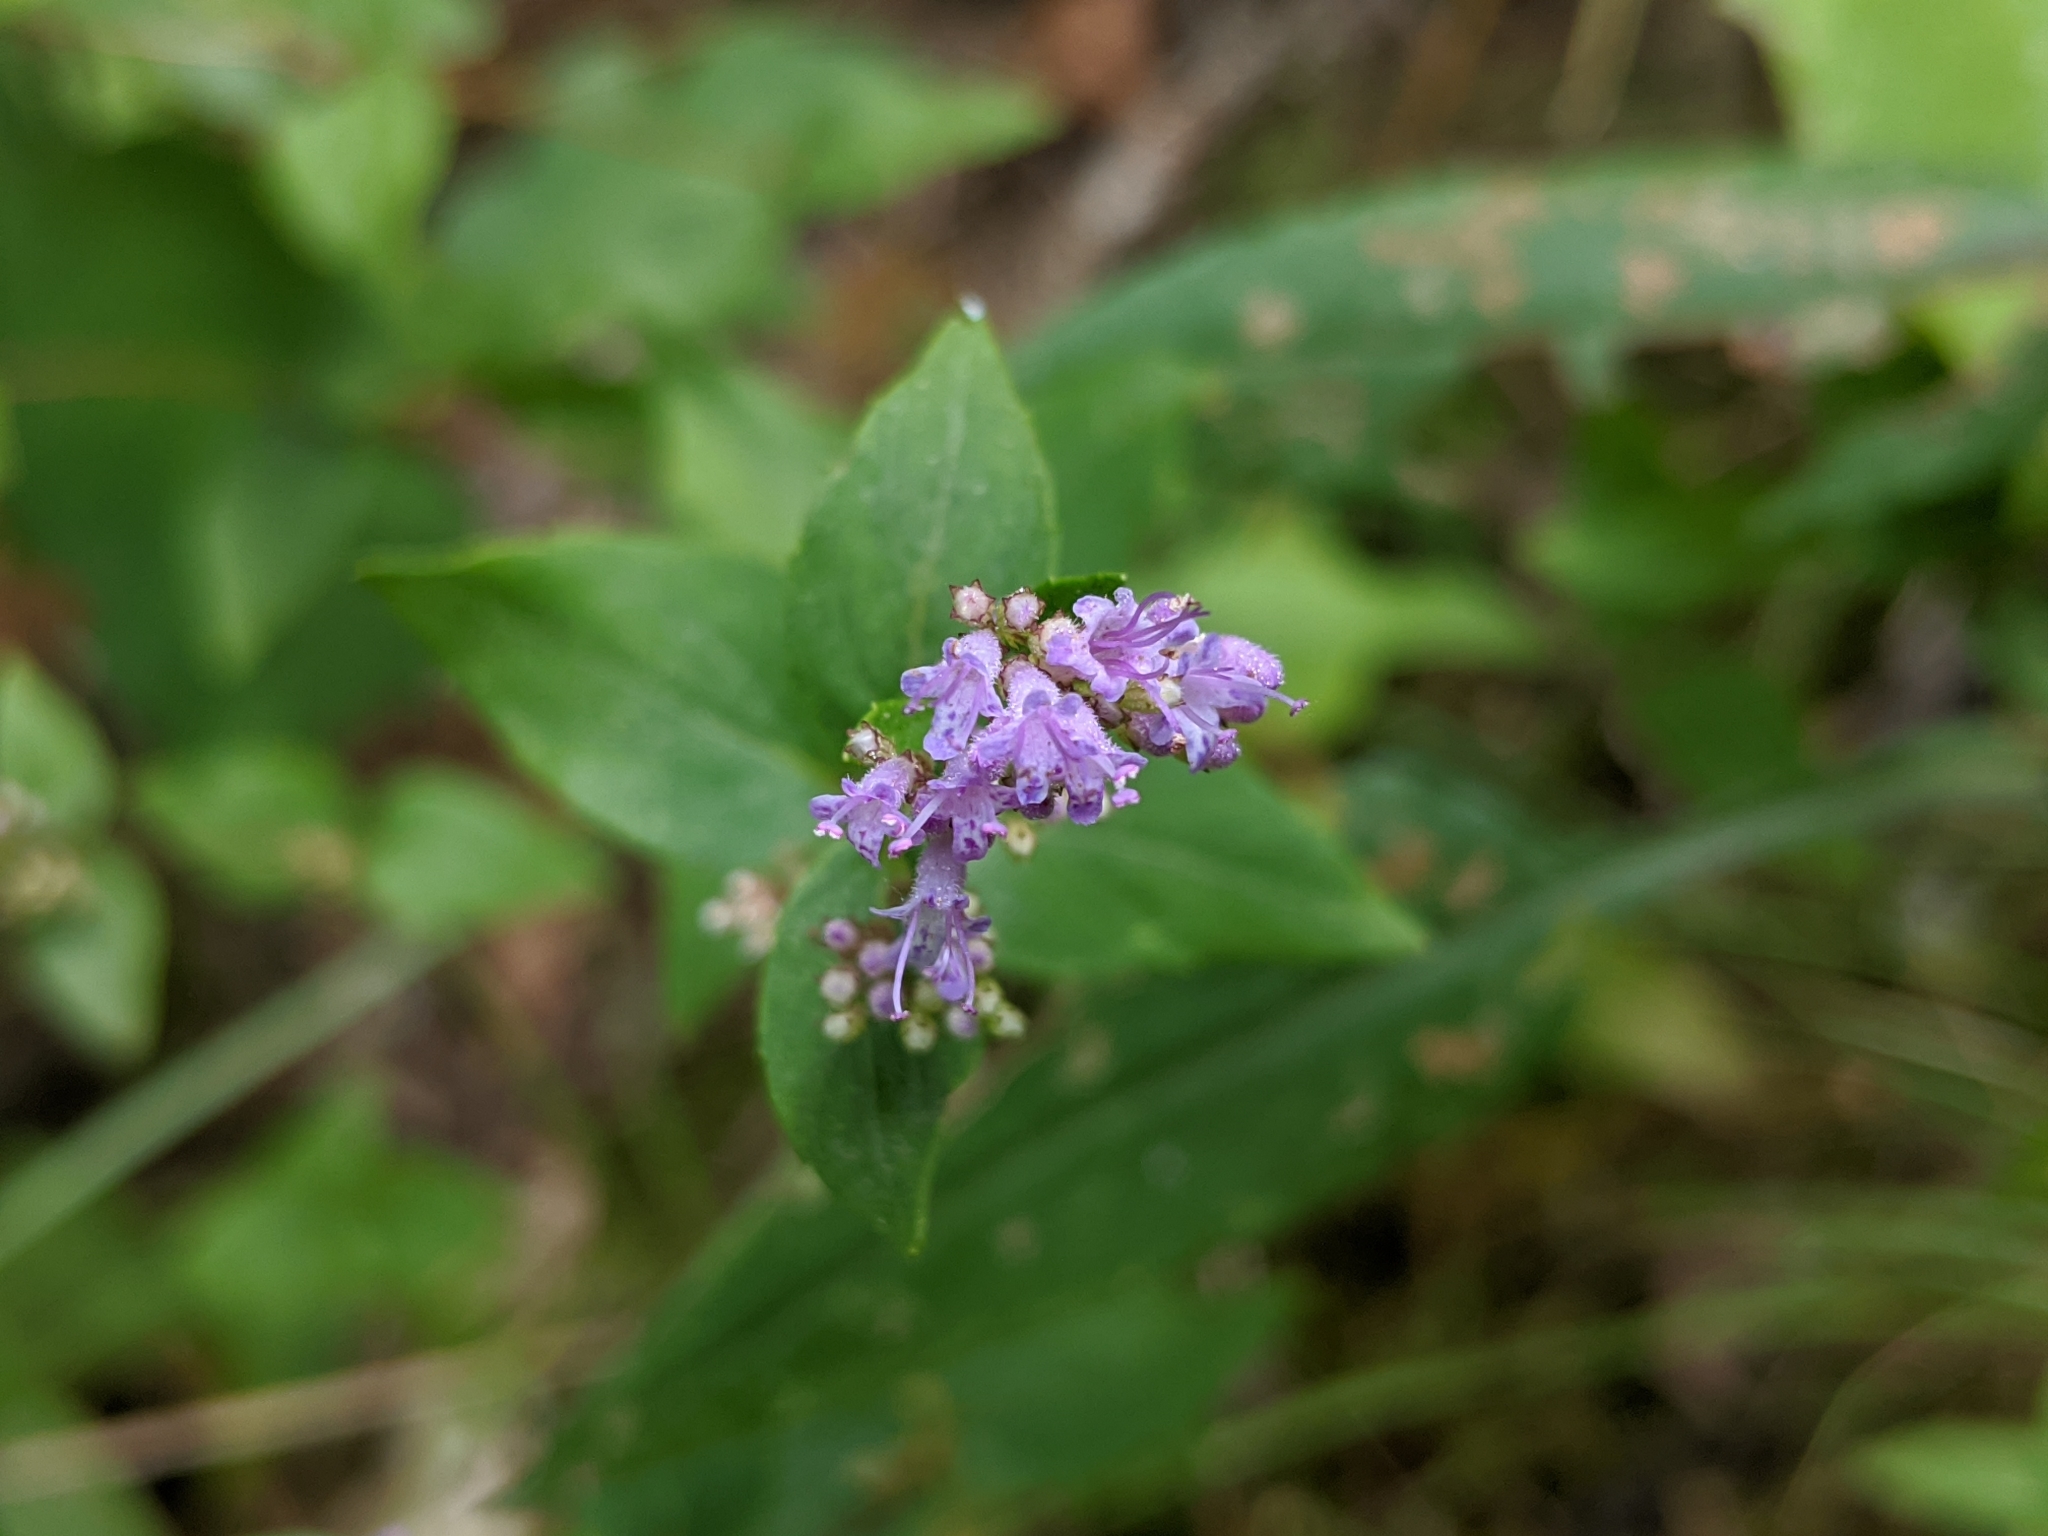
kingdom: Plantae
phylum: Tracheophyta
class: Magnoliopsida
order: Lamiales
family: Lamiaceae
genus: Cunila
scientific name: Cunila origanoides
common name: American dittany
